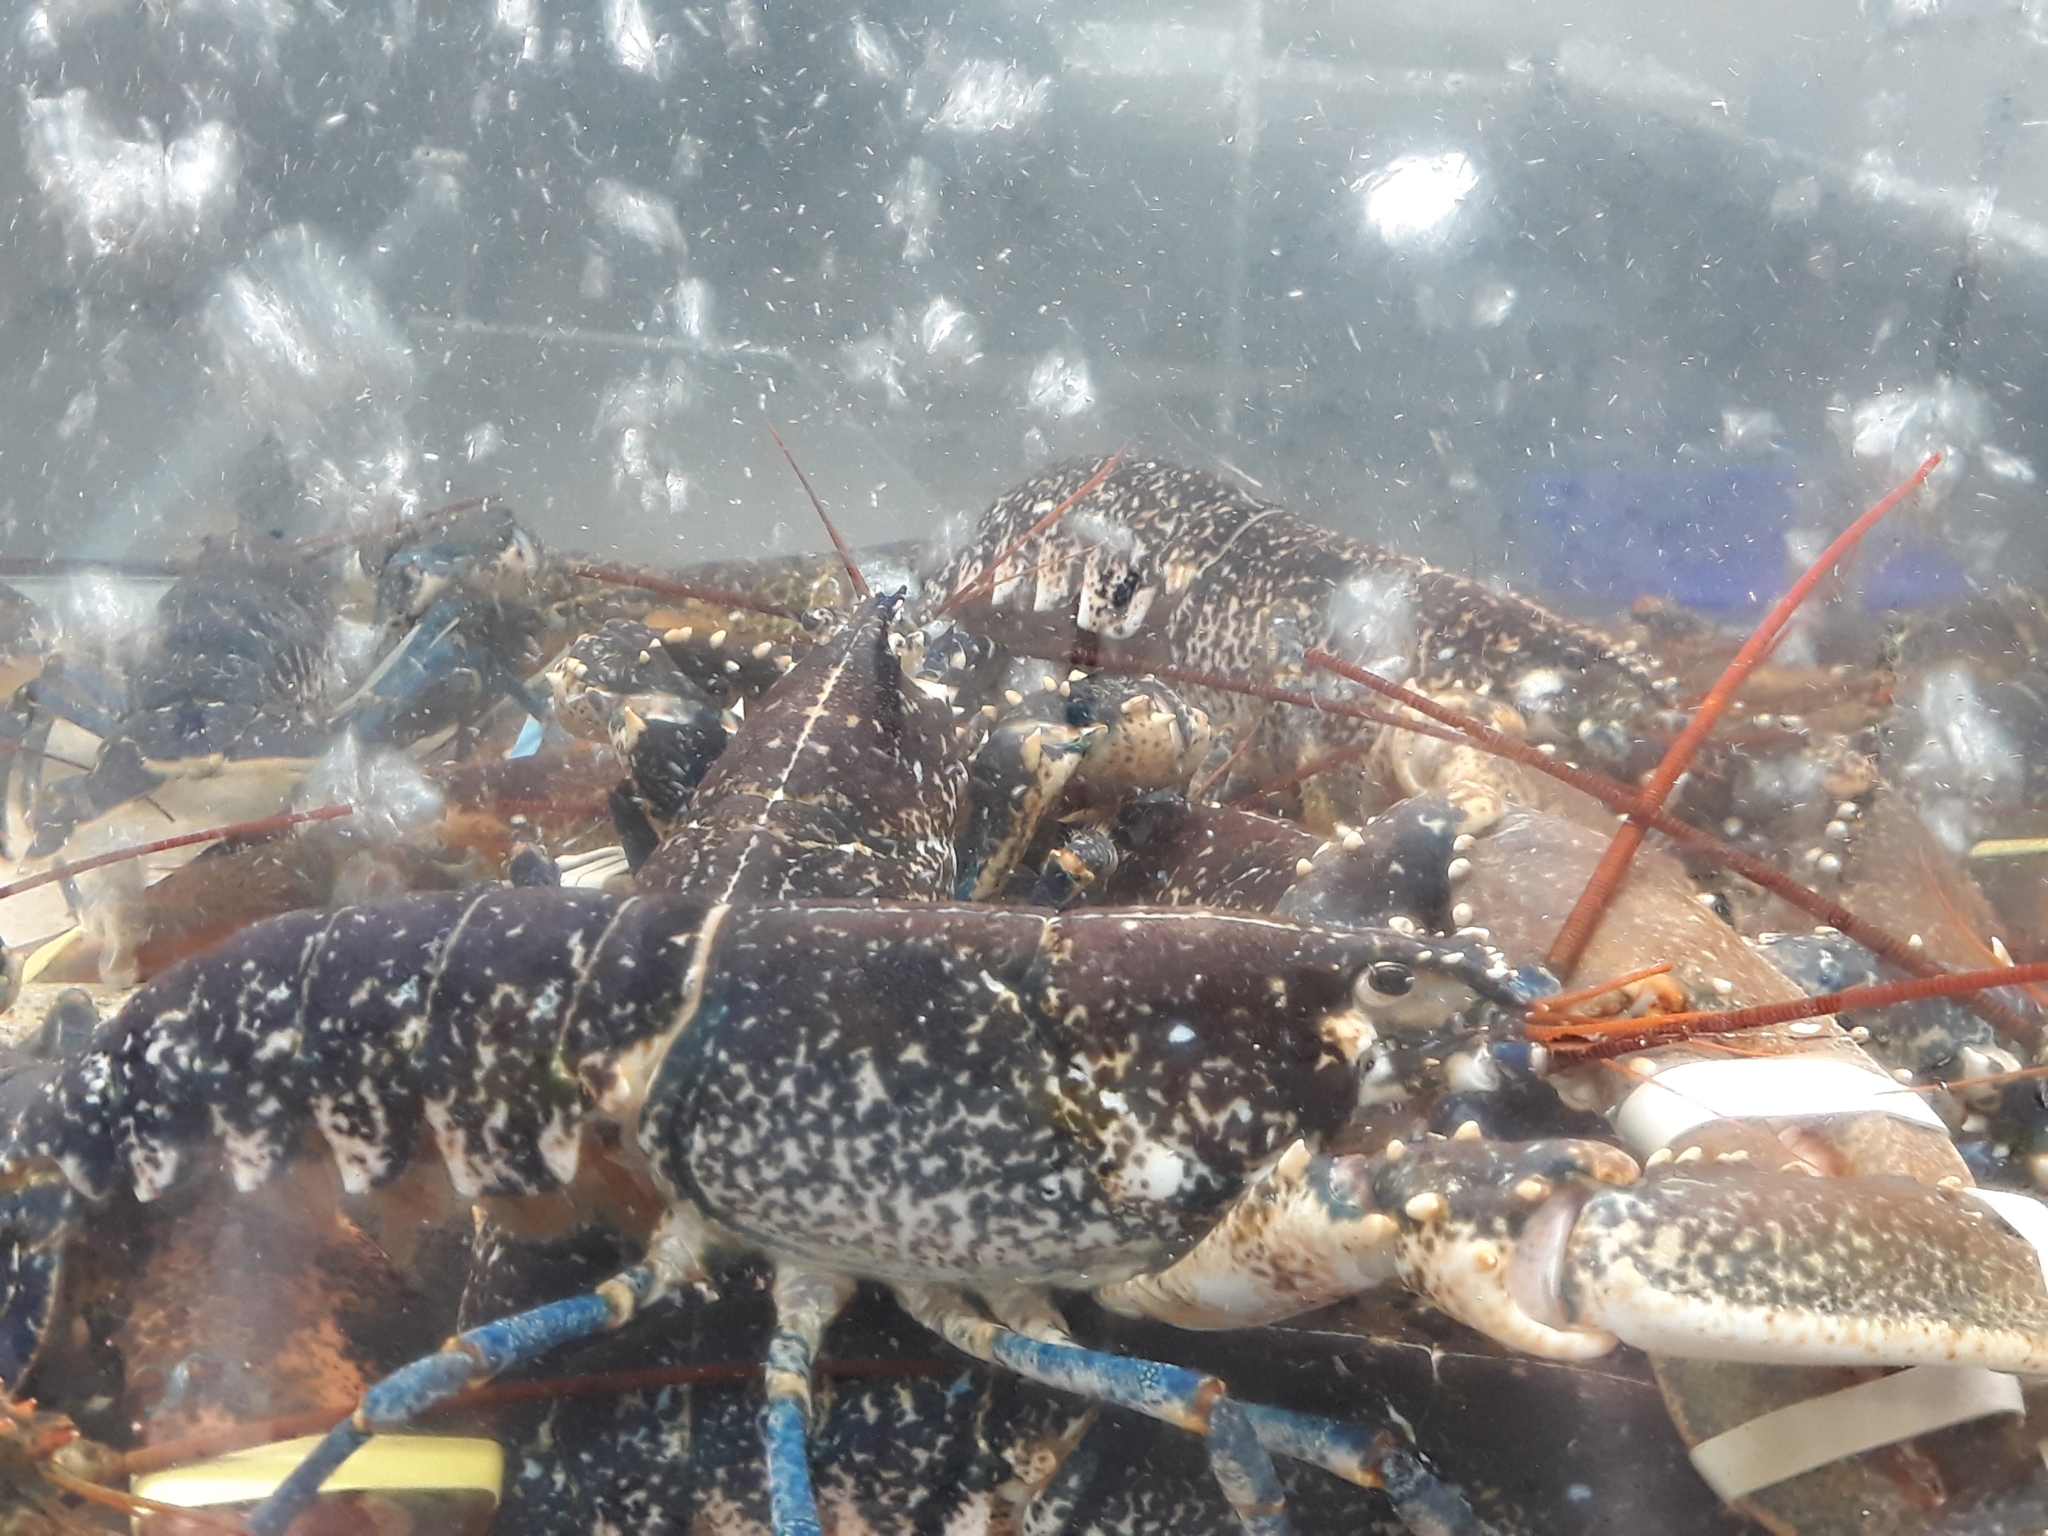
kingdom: Animalia
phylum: Arthropoda
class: Malacostraca
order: Decapoda
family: Nephropidae
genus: Homarus
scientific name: Homarus gammarus
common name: European lobster
